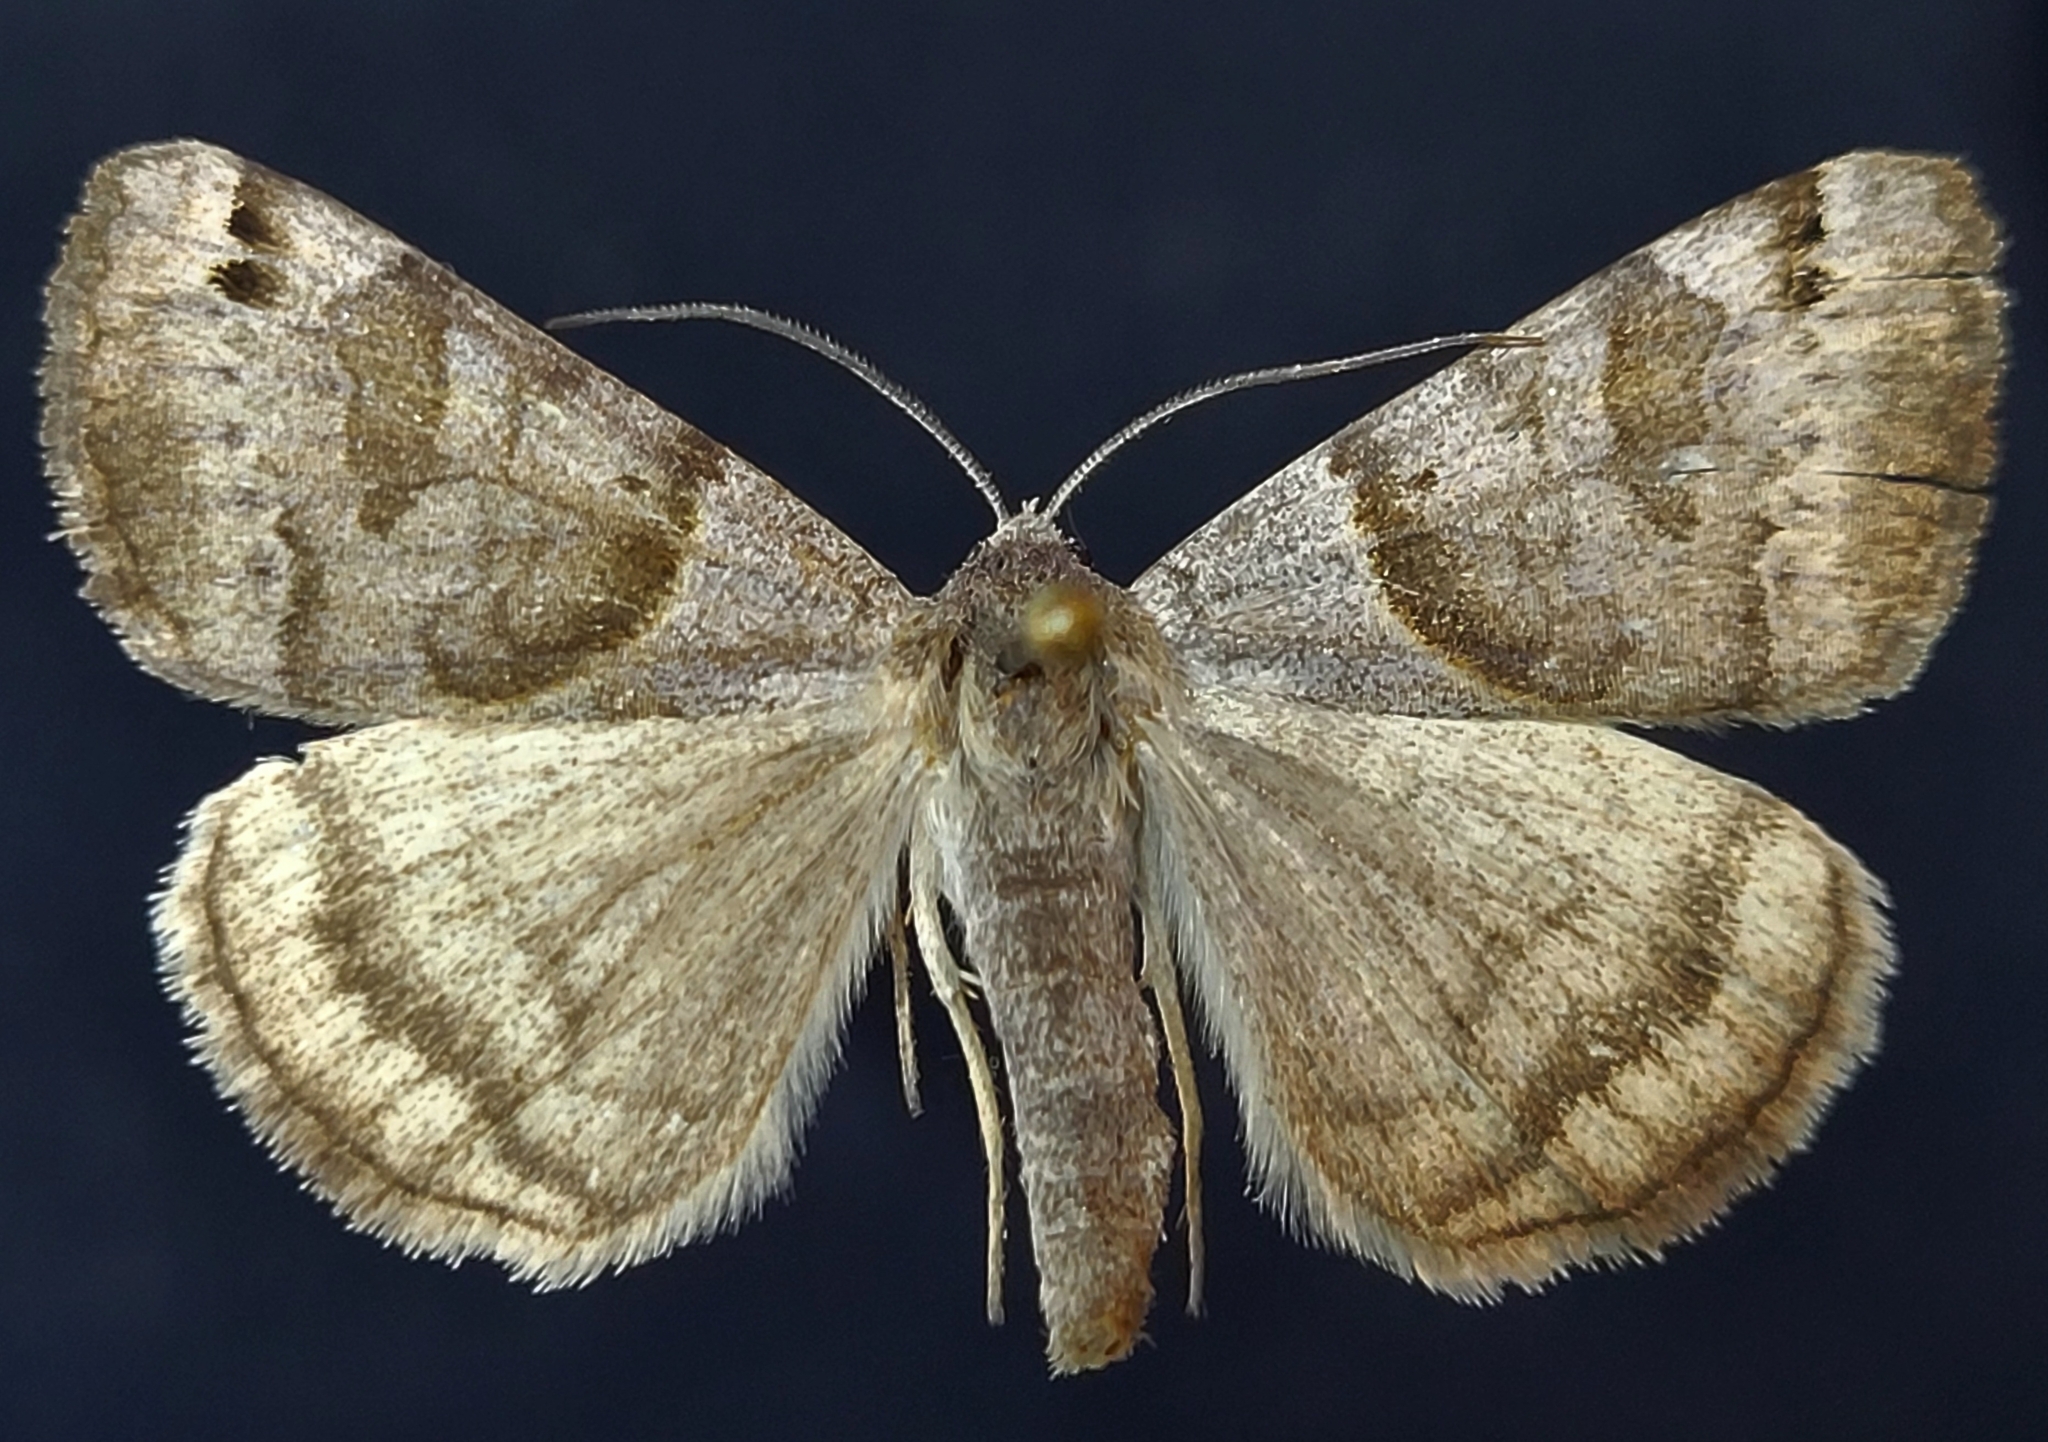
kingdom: Animalia
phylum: Arthropoda
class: Insecta
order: Lepidoptera
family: Erebidae
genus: Caenurgina
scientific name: Caenurgina crassiuscula
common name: Double-barred
